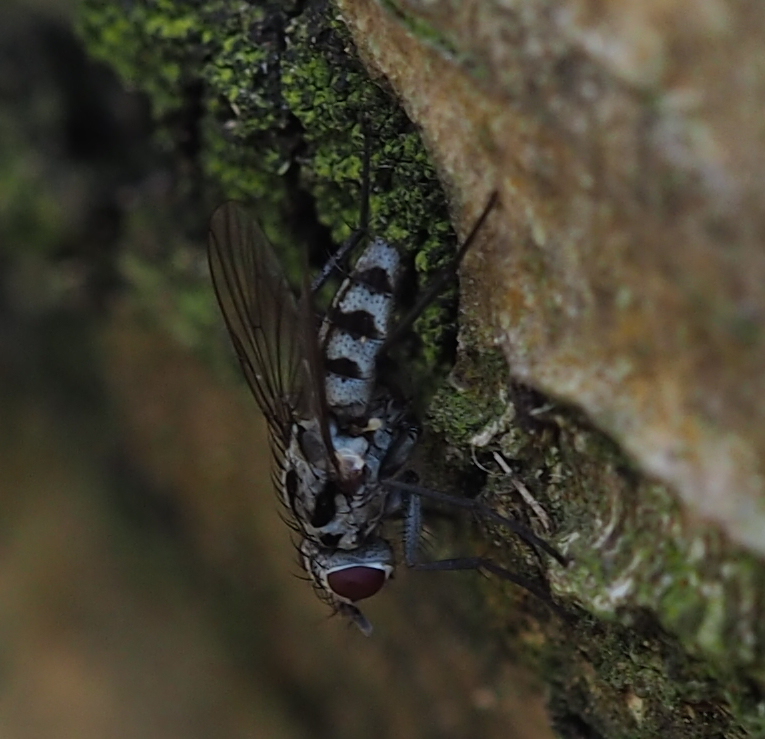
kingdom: Animalia
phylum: Arthropoda
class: Insecta
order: Diptera
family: Anthomyiidae
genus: Eustalomyia
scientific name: Eustalomyia hilaris
